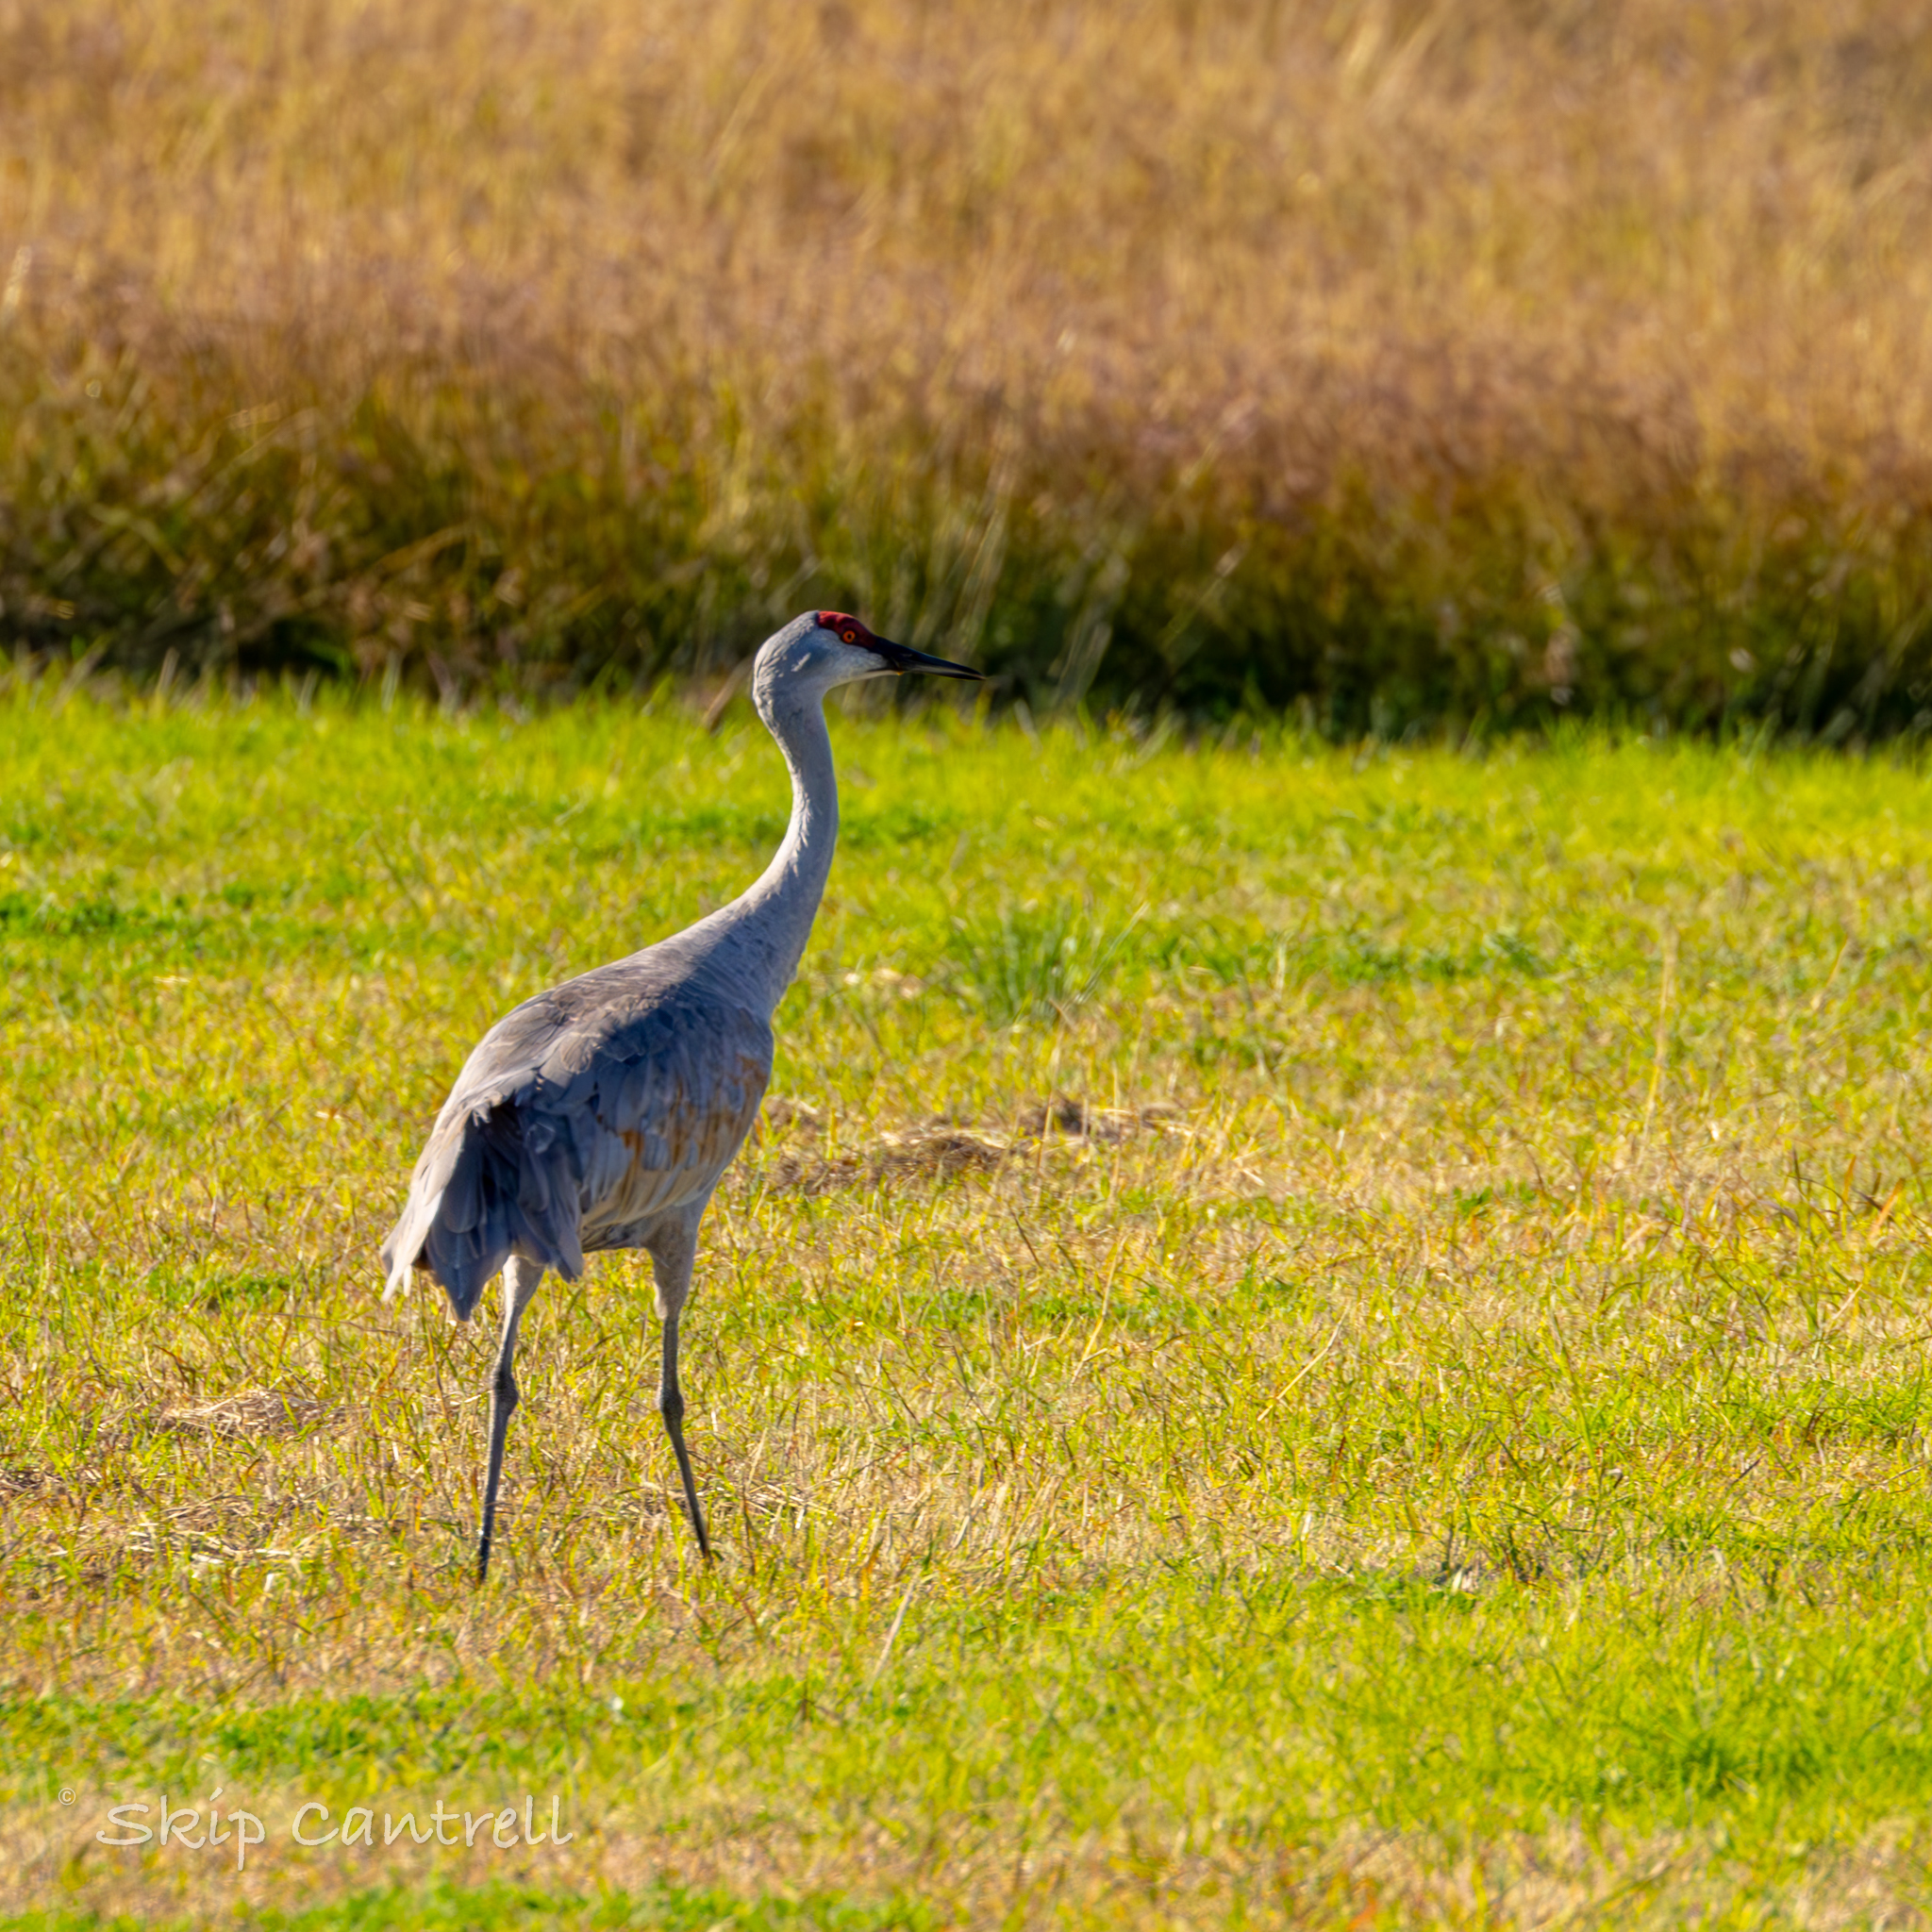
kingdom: Animalia
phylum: Chordata
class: Aves
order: Gruiformes
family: Gruidae
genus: Grus
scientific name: Grus canadensis
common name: Sandhill crane
